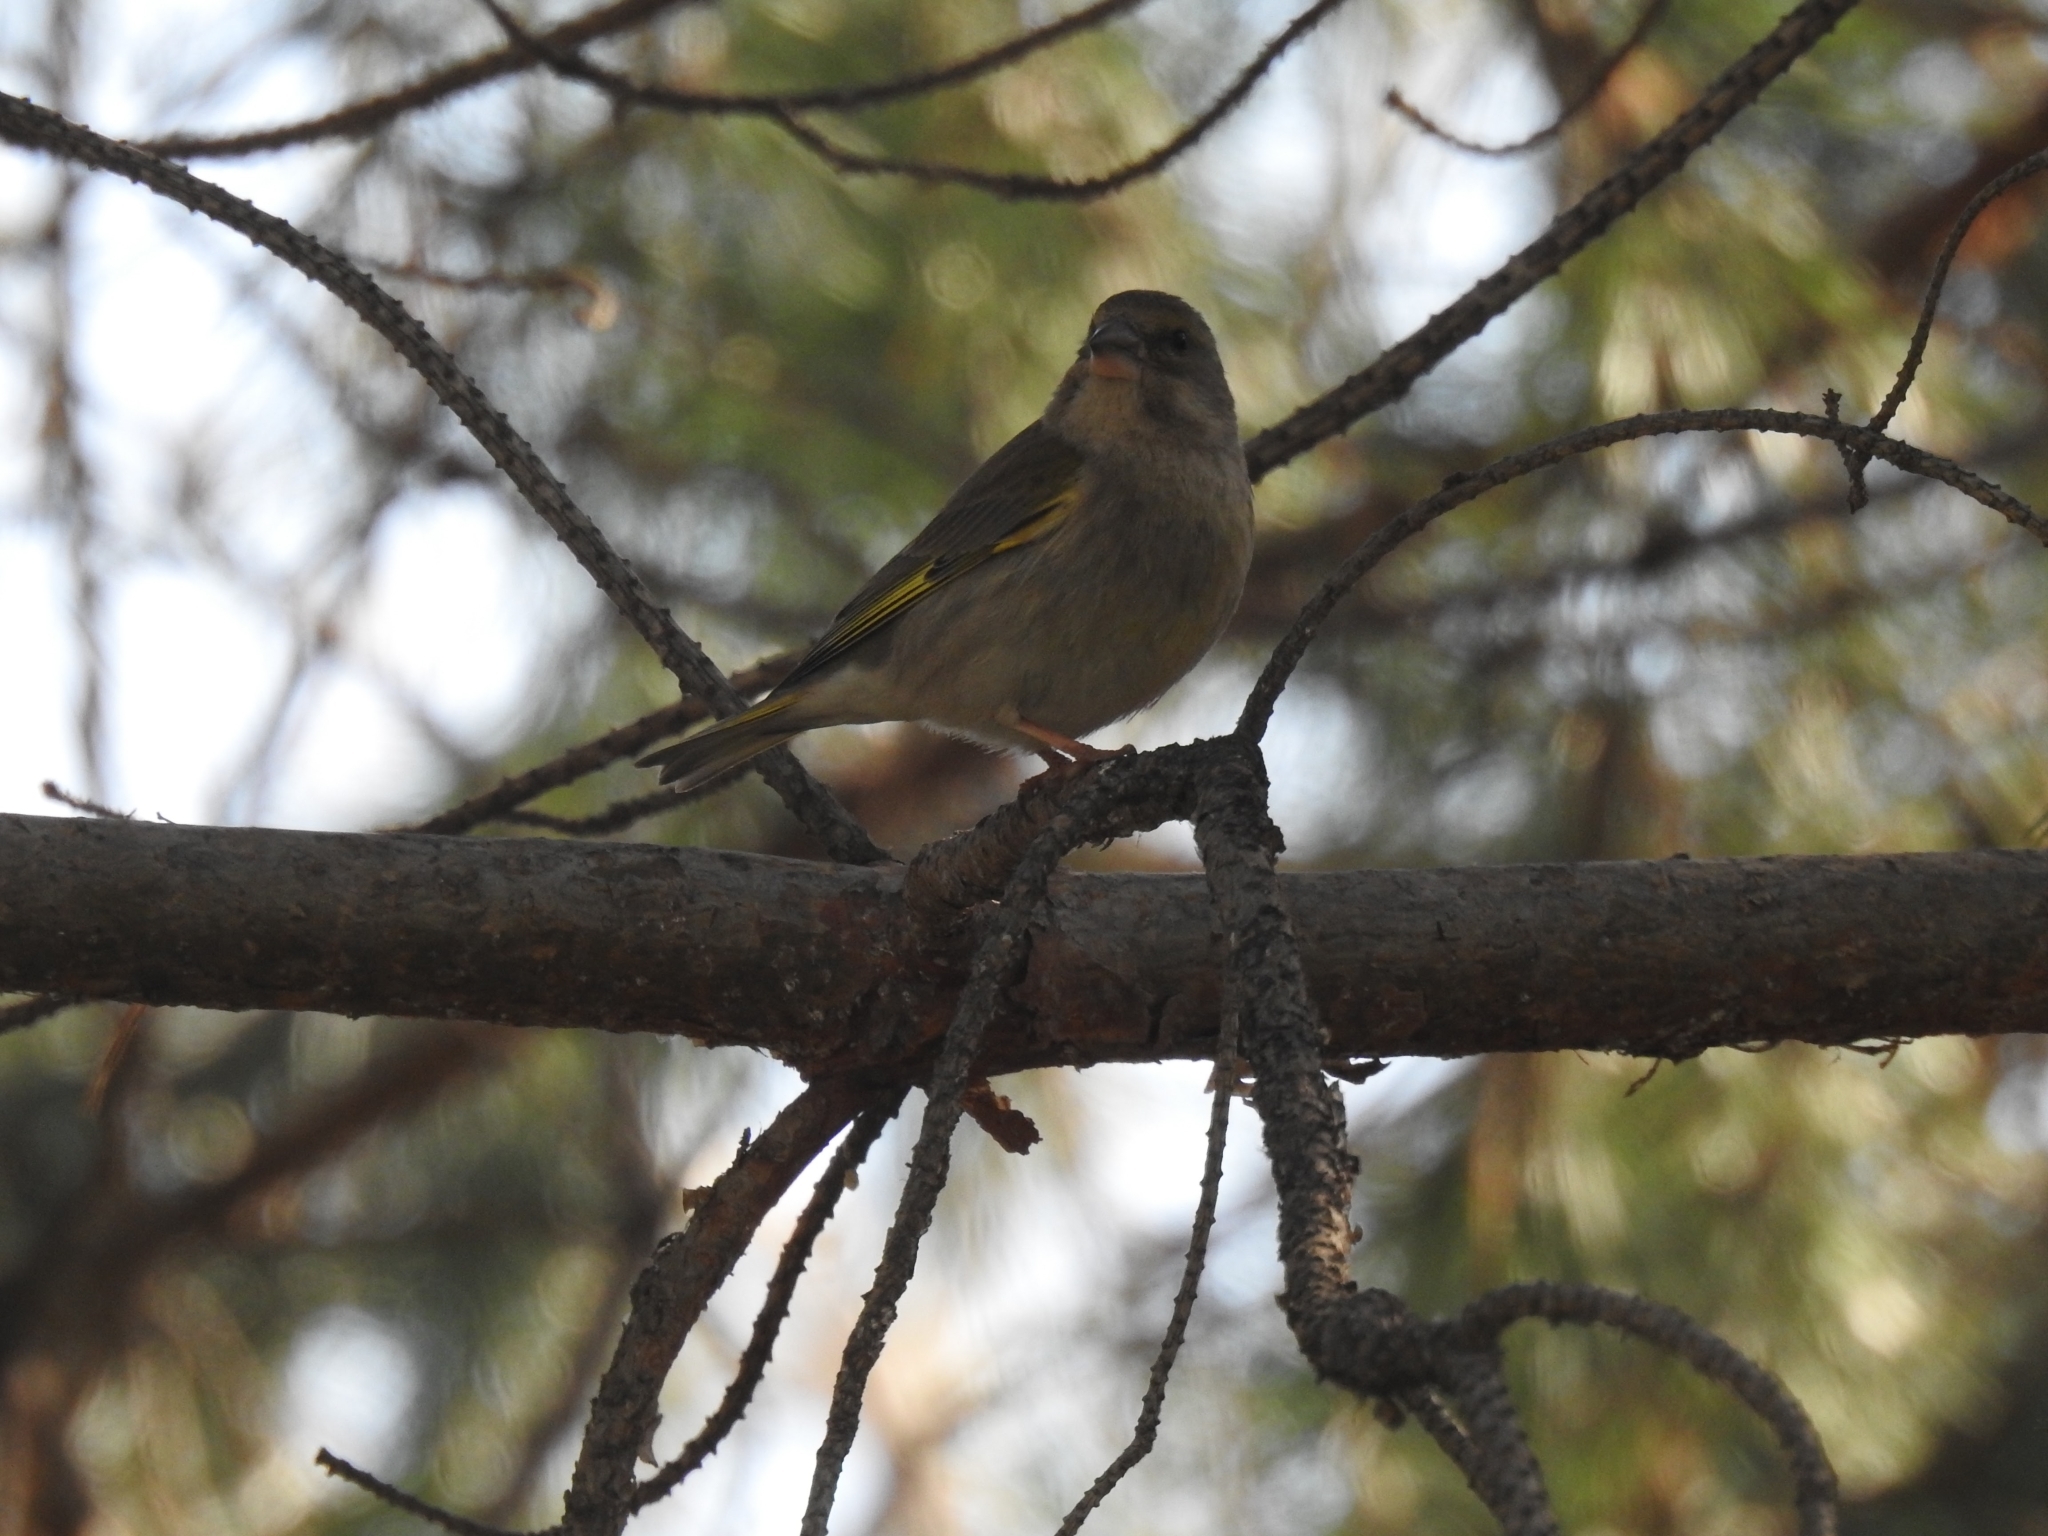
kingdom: Plantae
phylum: Tracheophyta
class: Liliopsida
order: Poales
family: Poaceae
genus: Chloris
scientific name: Chloris chloris
